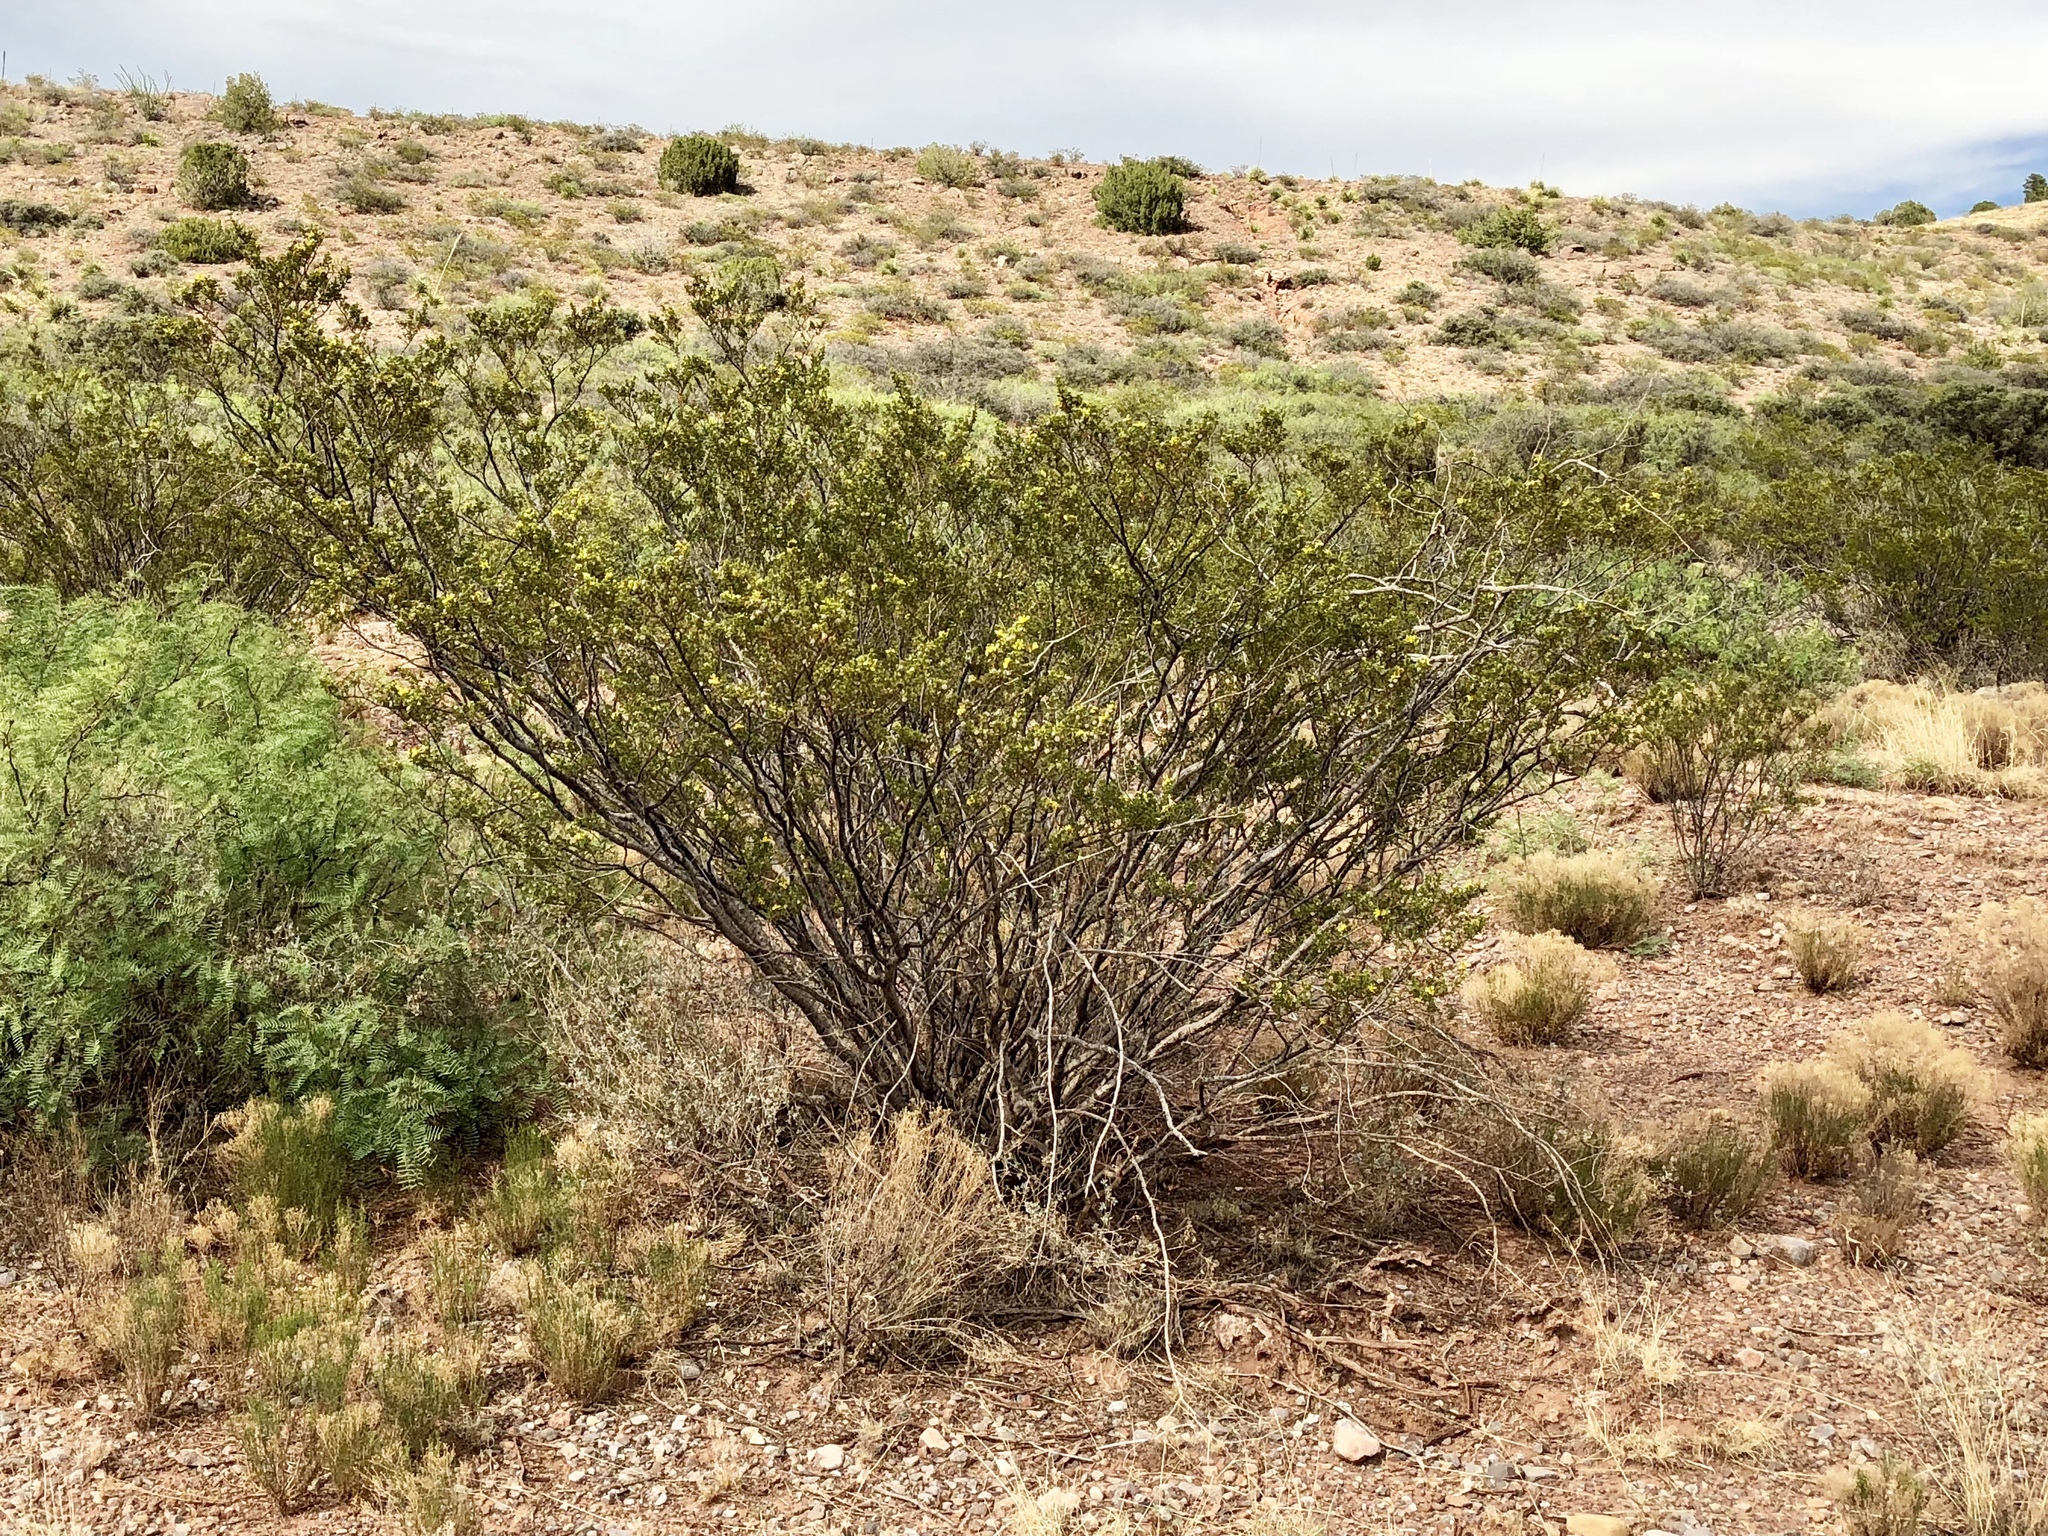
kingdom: Plantae
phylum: Tracheophyta
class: Magnoliopsida
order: Zygophyllales
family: Zygophyllaceae
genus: Larrea
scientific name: Larrea tridentata
